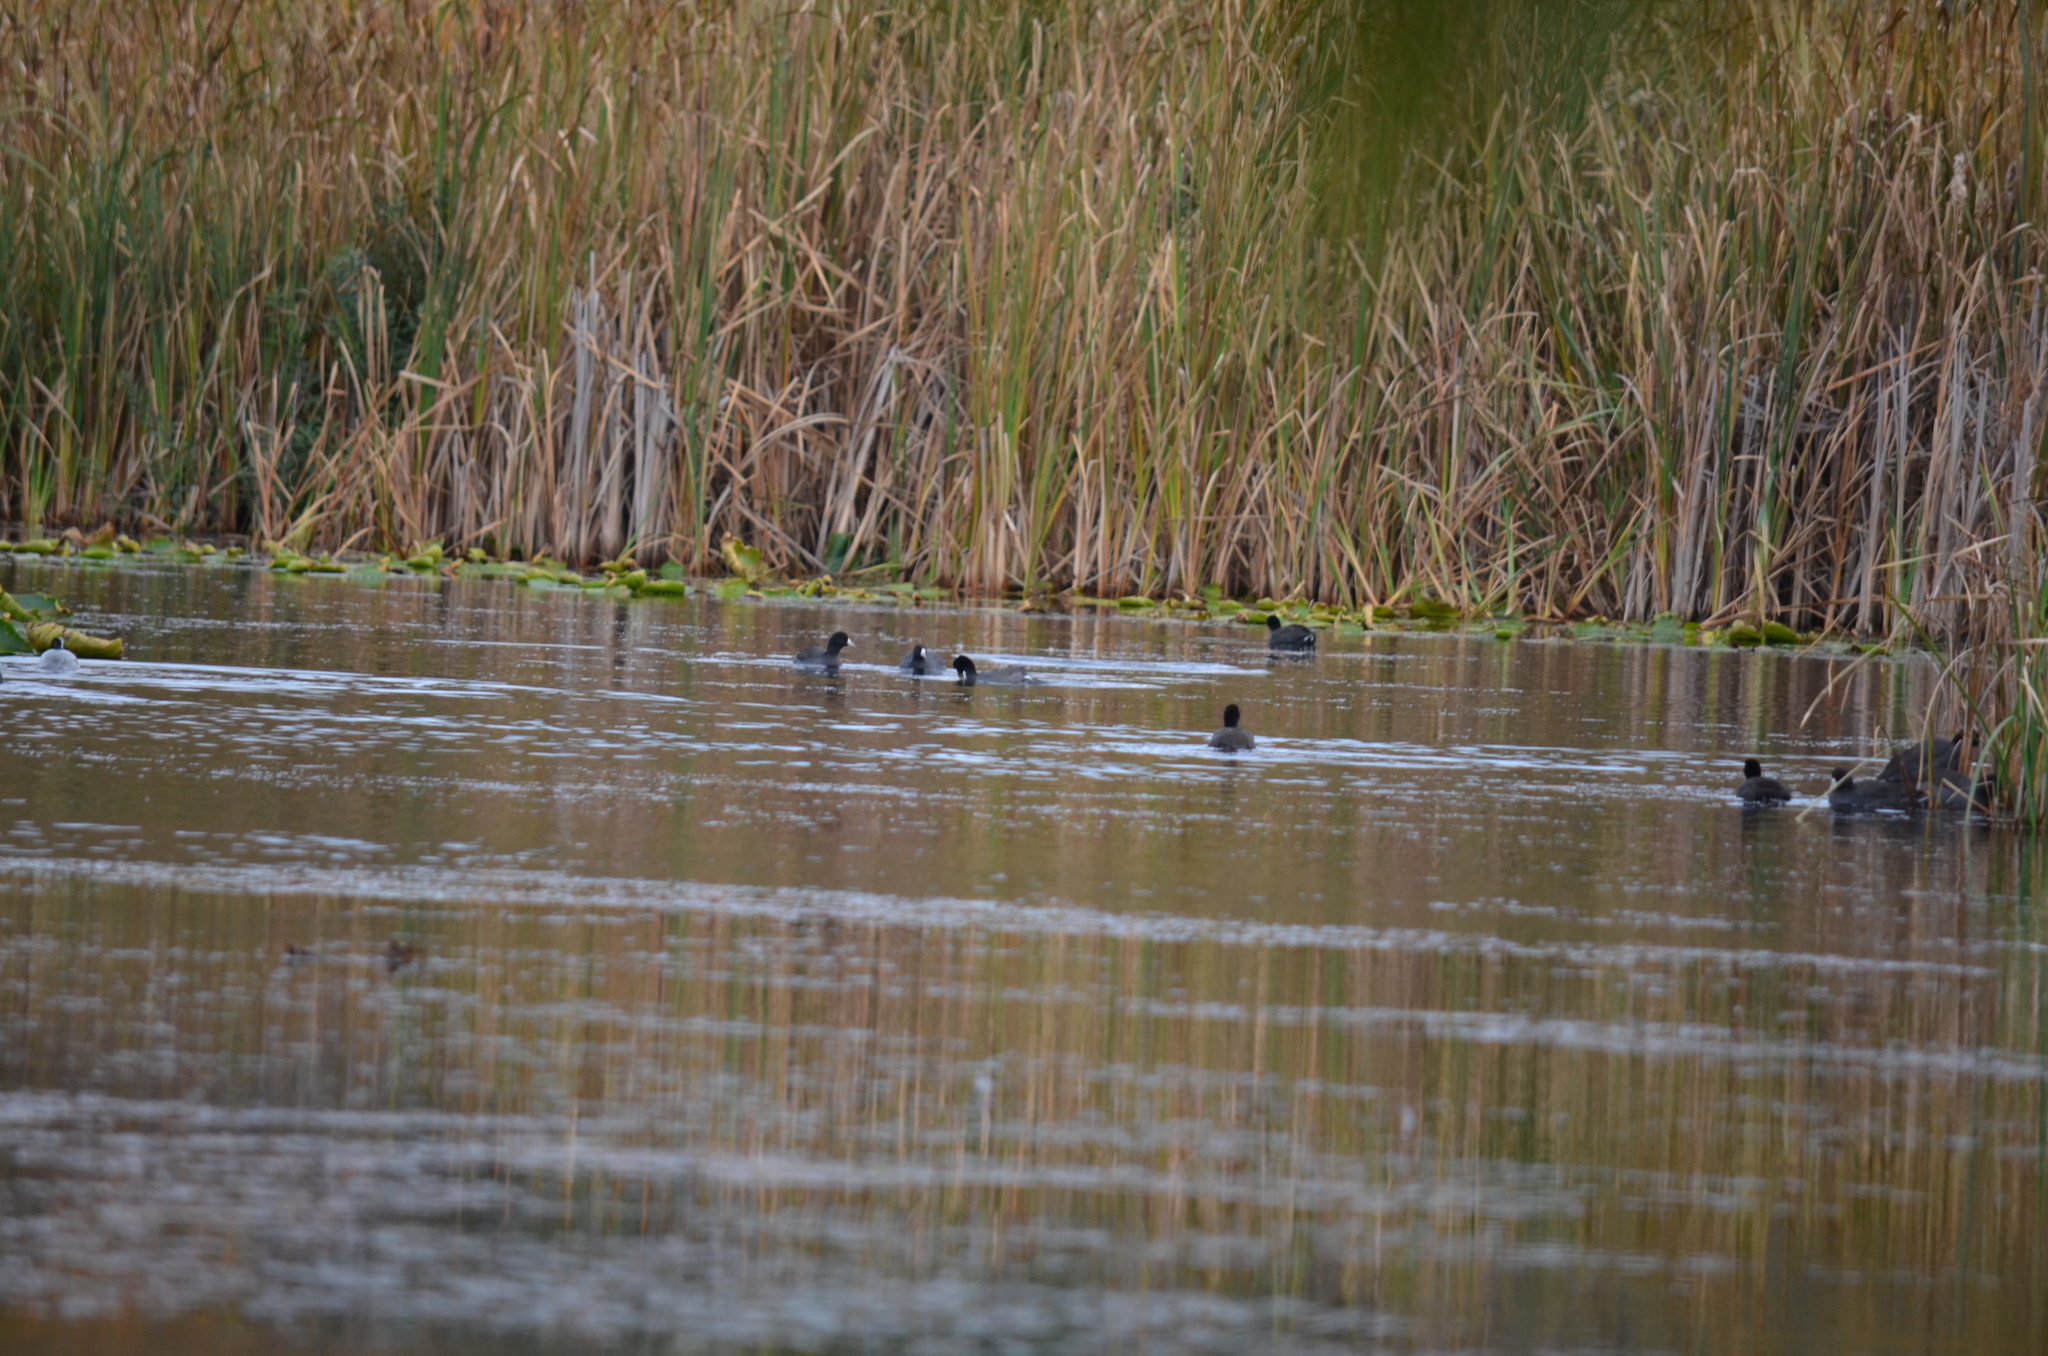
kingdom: Animalia
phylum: Chordata
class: Aves
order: Gruiformes
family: Rallidae
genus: Fulica
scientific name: Fulica americana
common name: American coot
